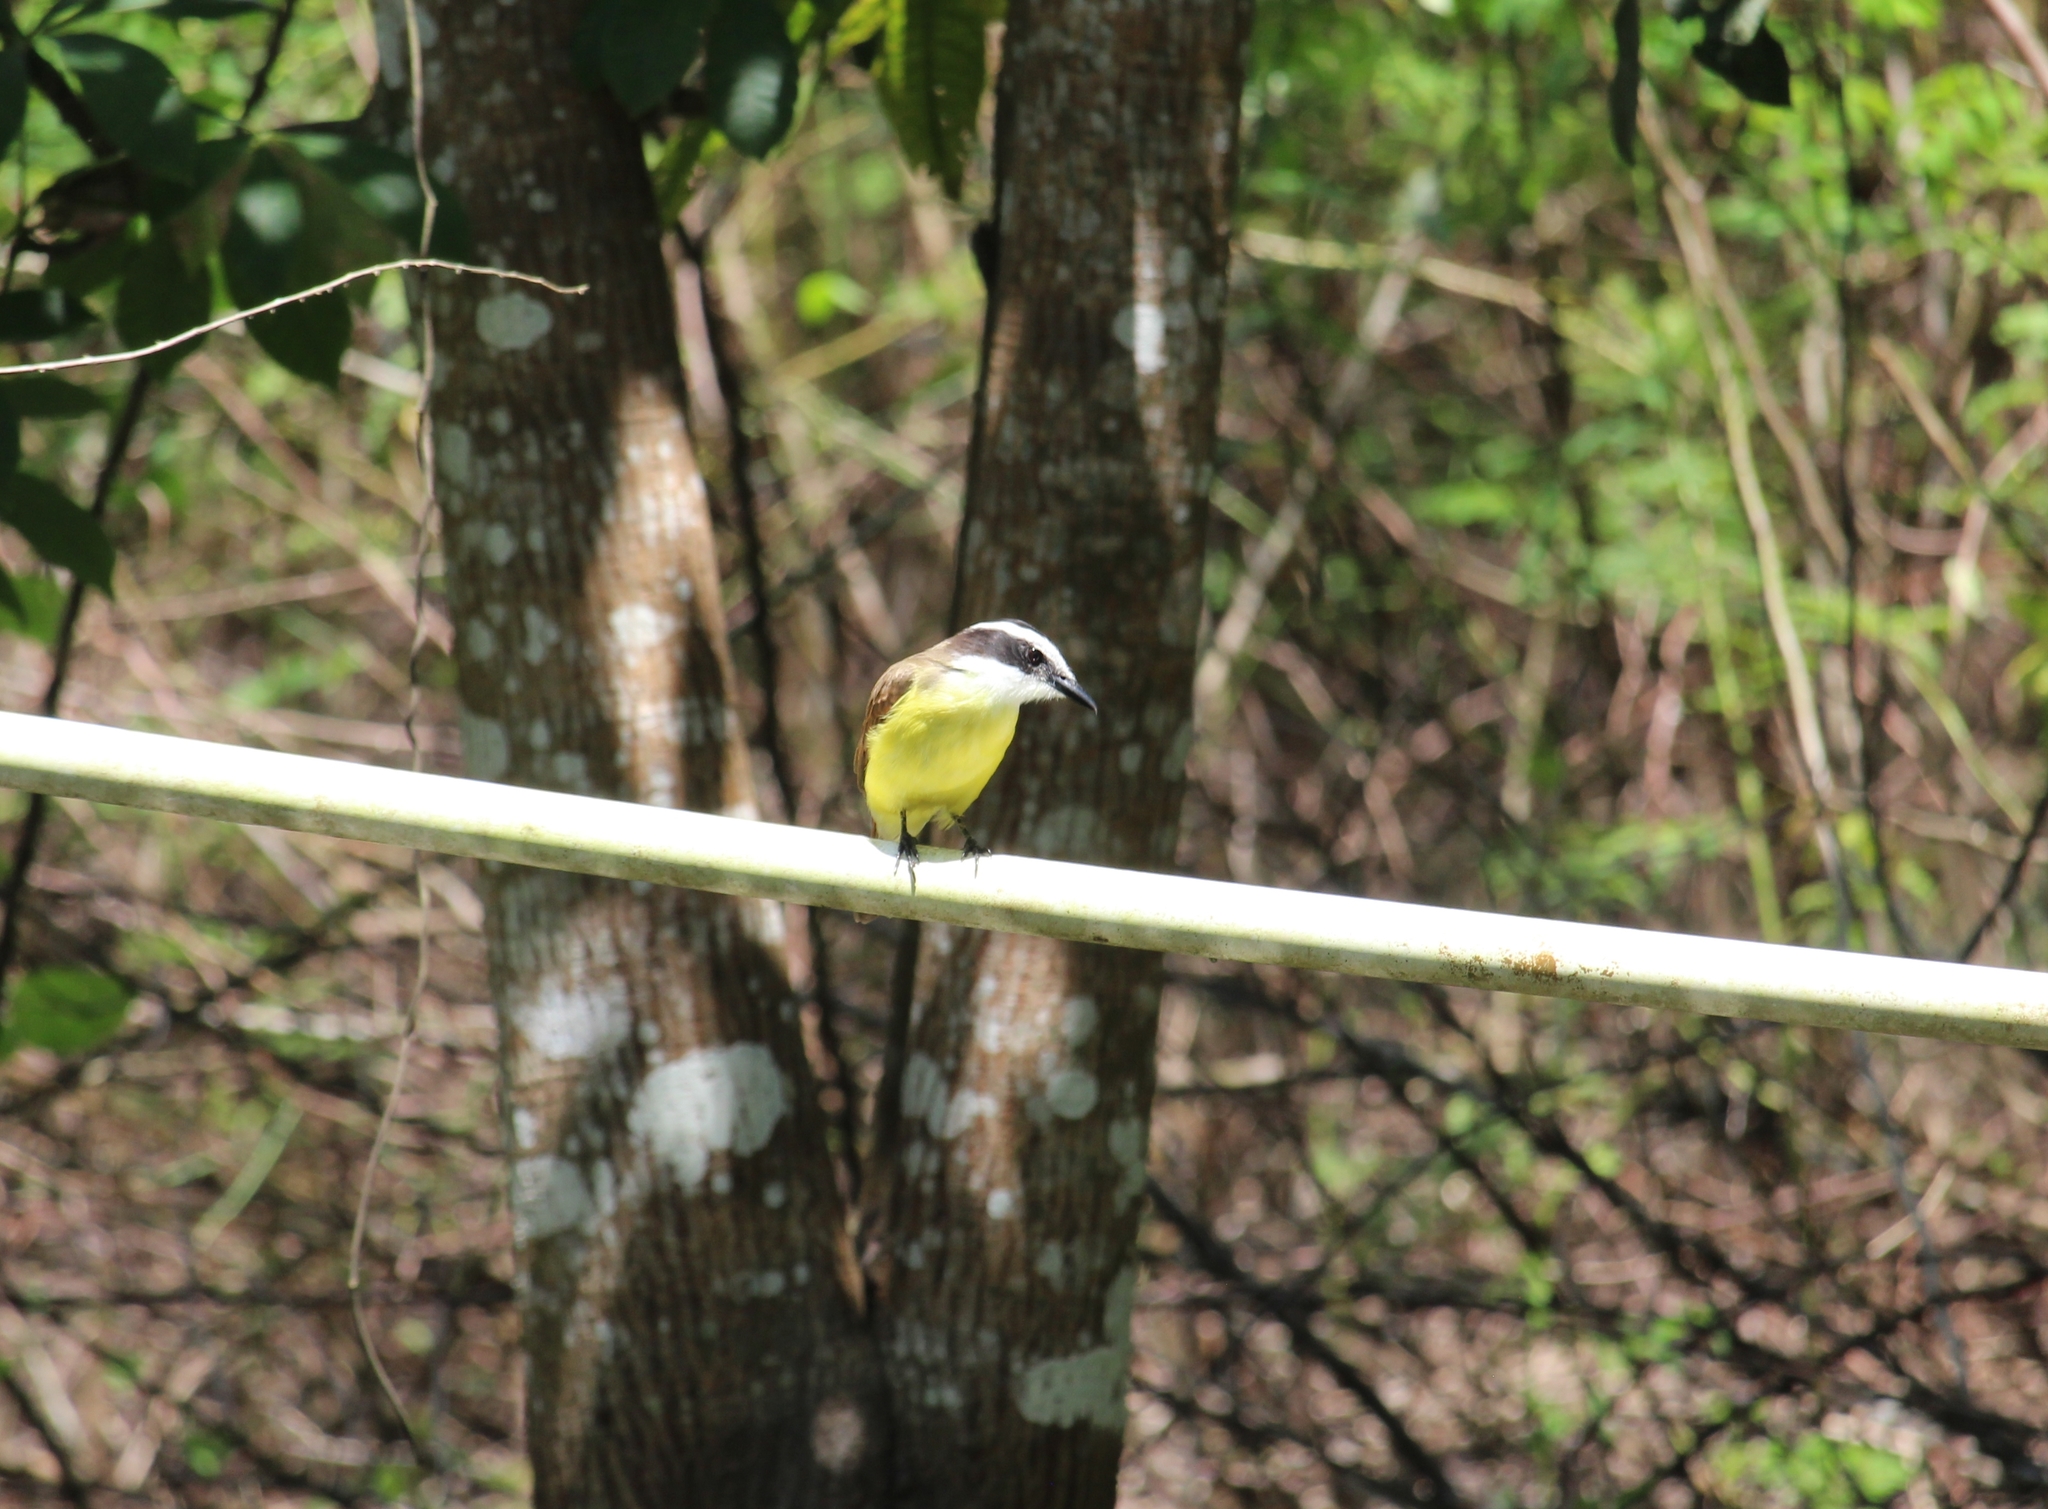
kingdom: Animalia
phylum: Chordata
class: Aves
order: Passeriformes
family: Tyrannidae
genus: Pitangus
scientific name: Pitangus sulphuratus
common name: Great kiskadee
